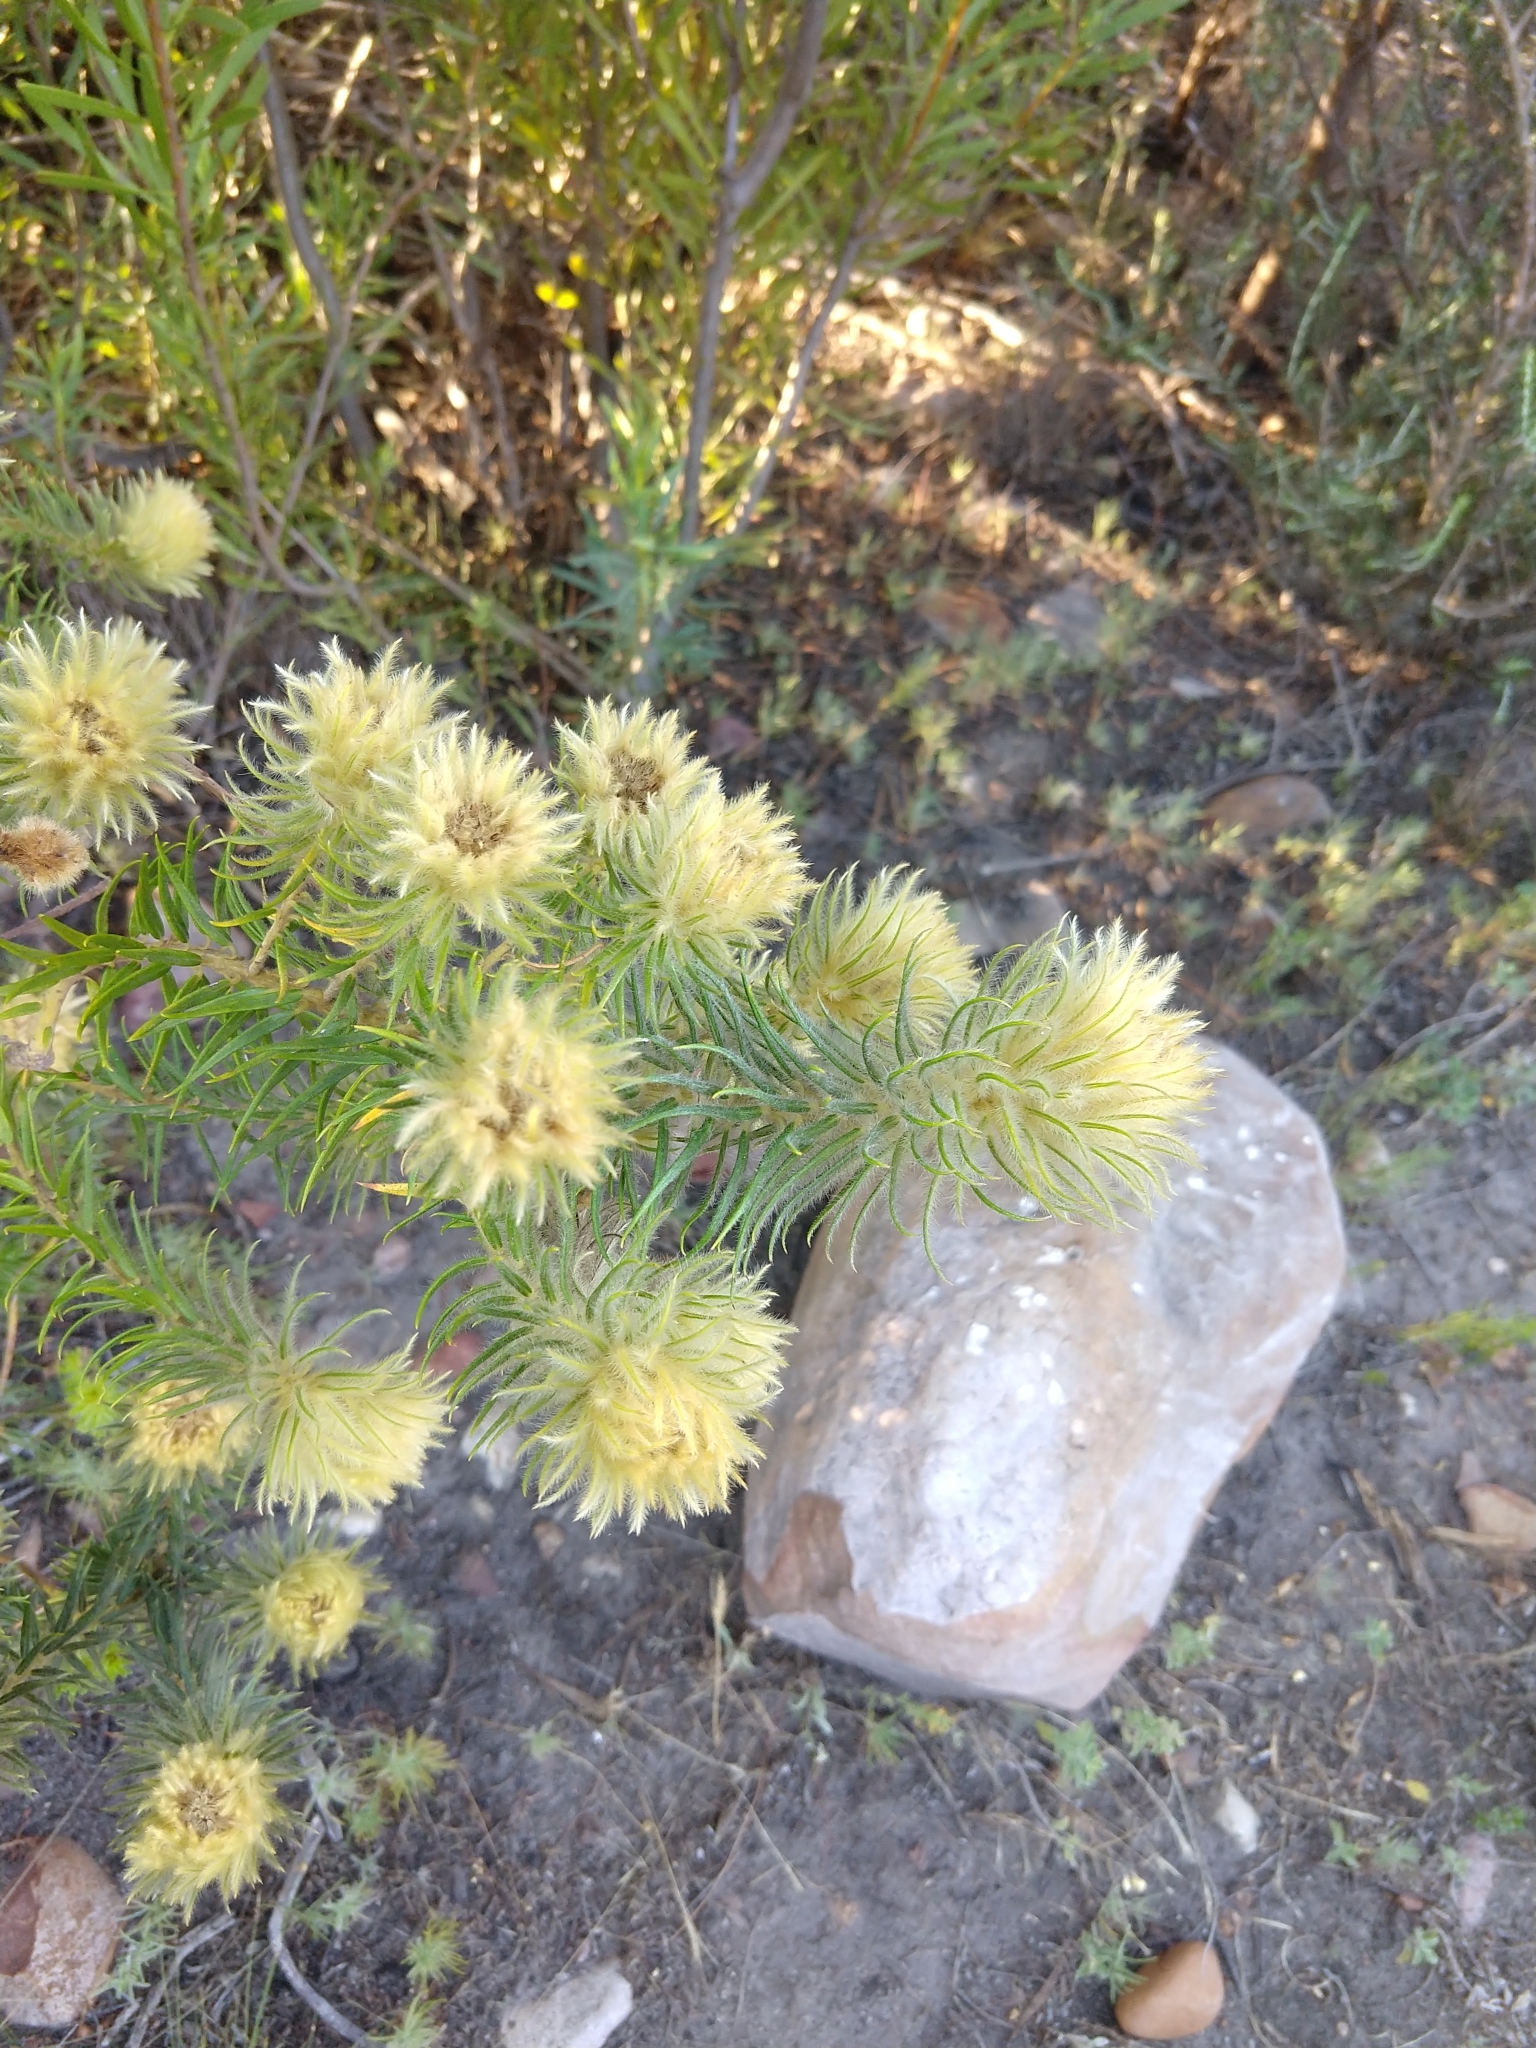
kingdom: Plantae
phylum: Tracheophyta
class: Magnoliopsida
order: Rosales
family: Rhamnaceae
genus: Phylica
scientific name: Phylica pubescens
